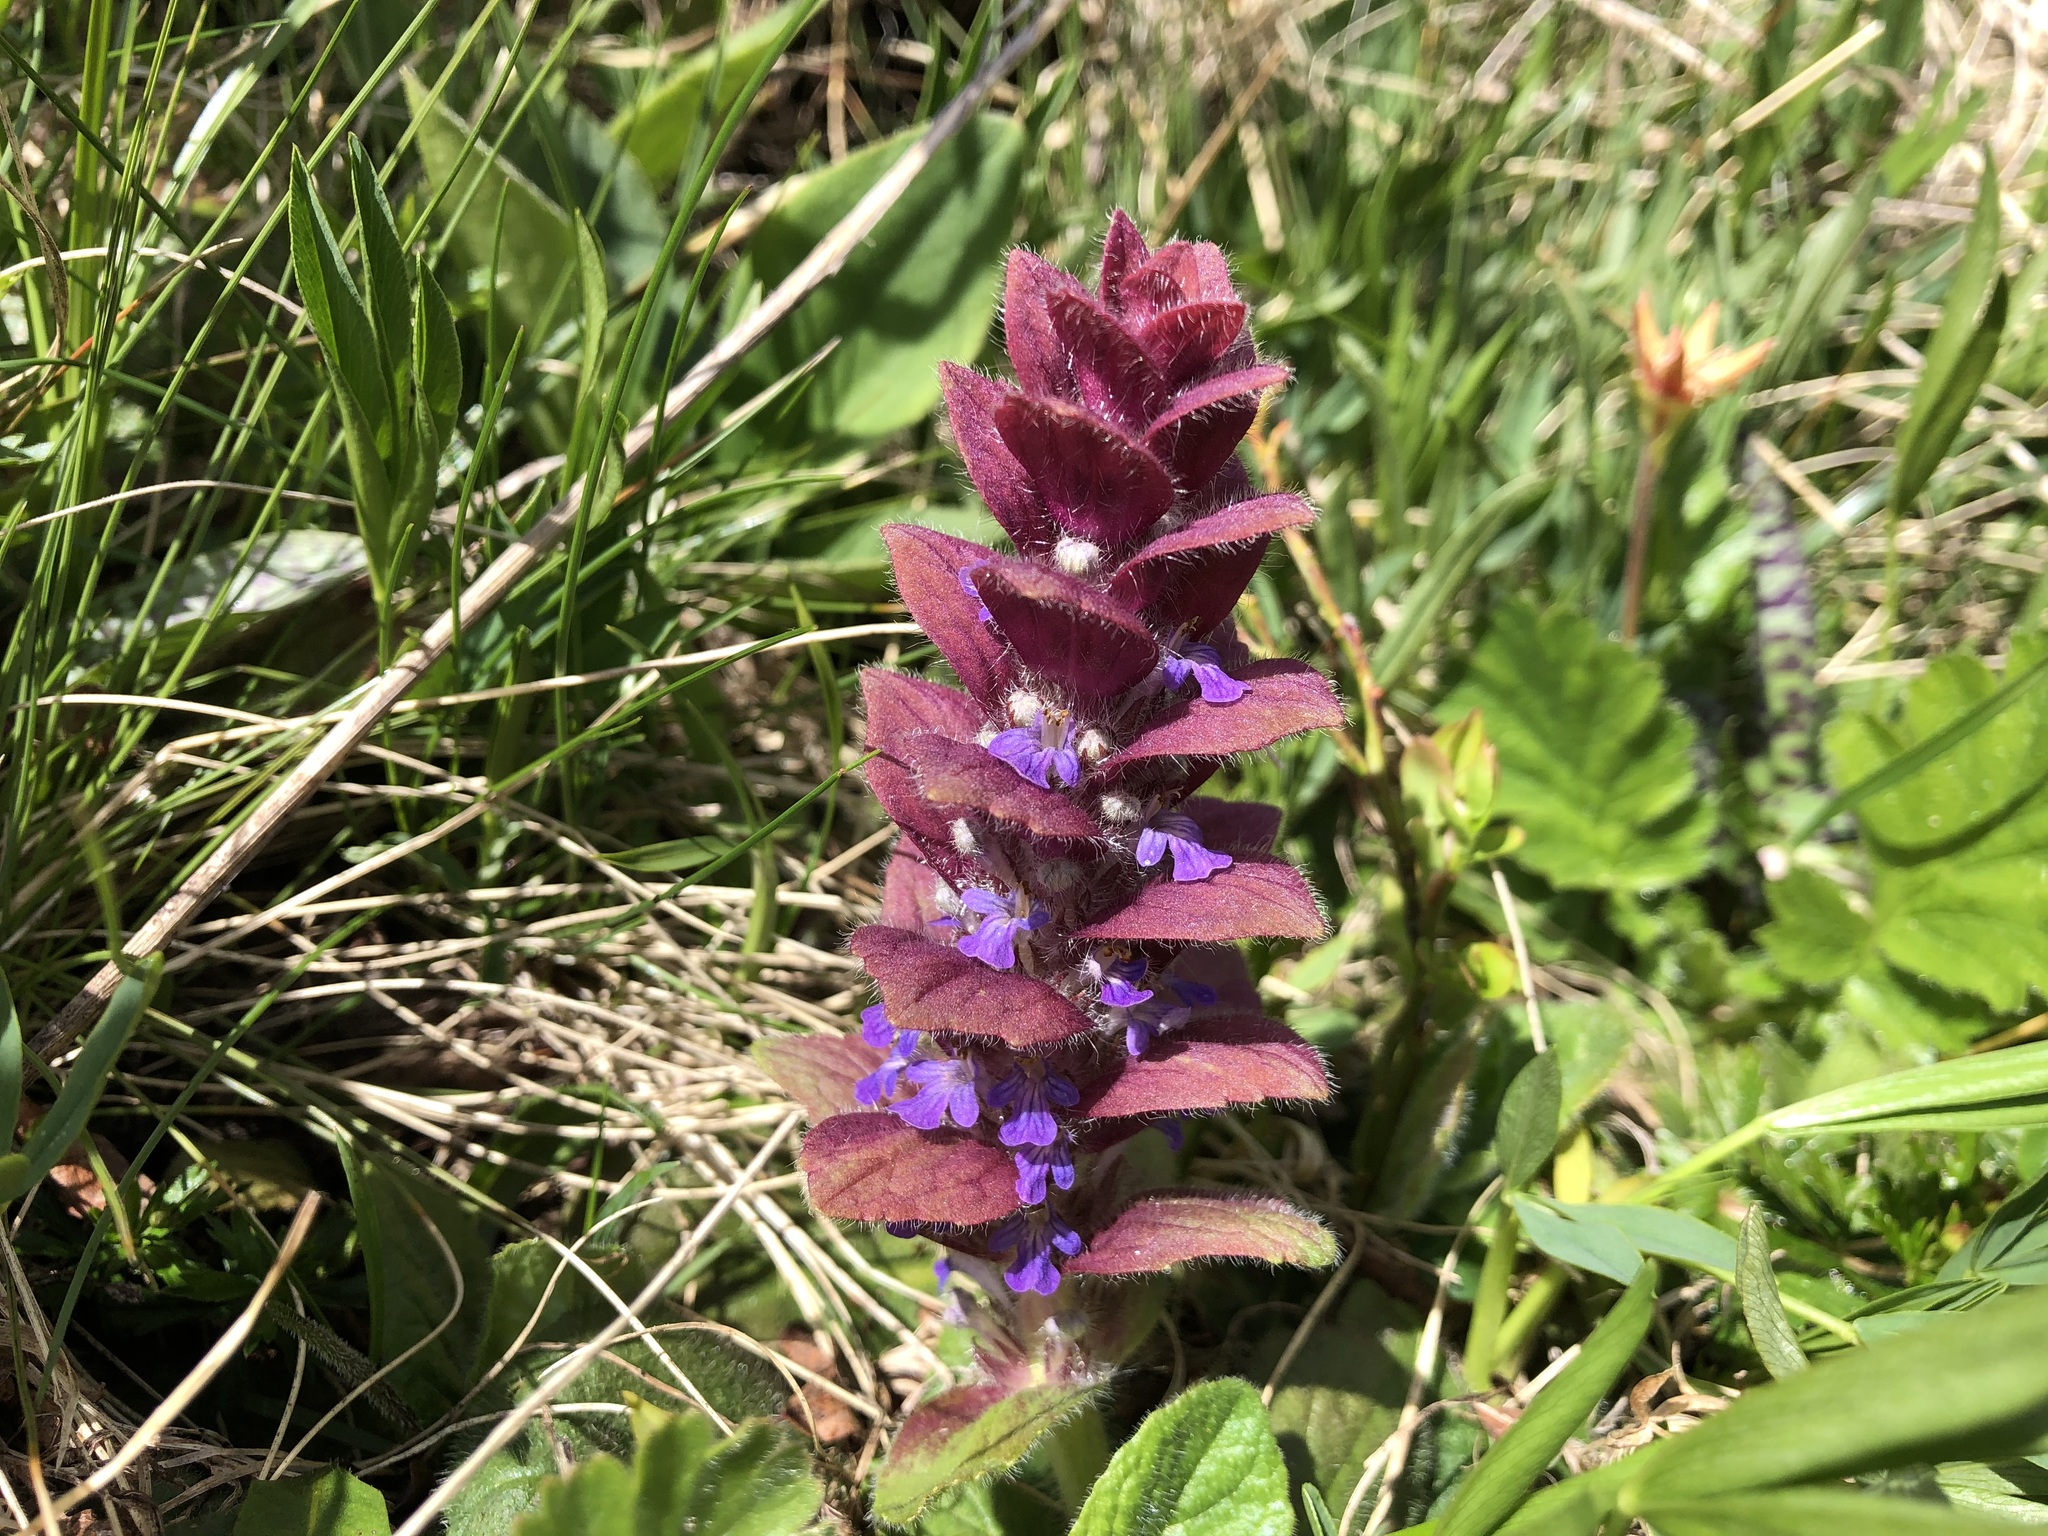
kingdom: Plantae
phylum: Tracheophyta
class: Magnoliopsida
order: Lamiales
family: Lamiaceae
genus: Ajuga
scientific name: Ajuga pyramidalis
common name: Pyramid bugle
